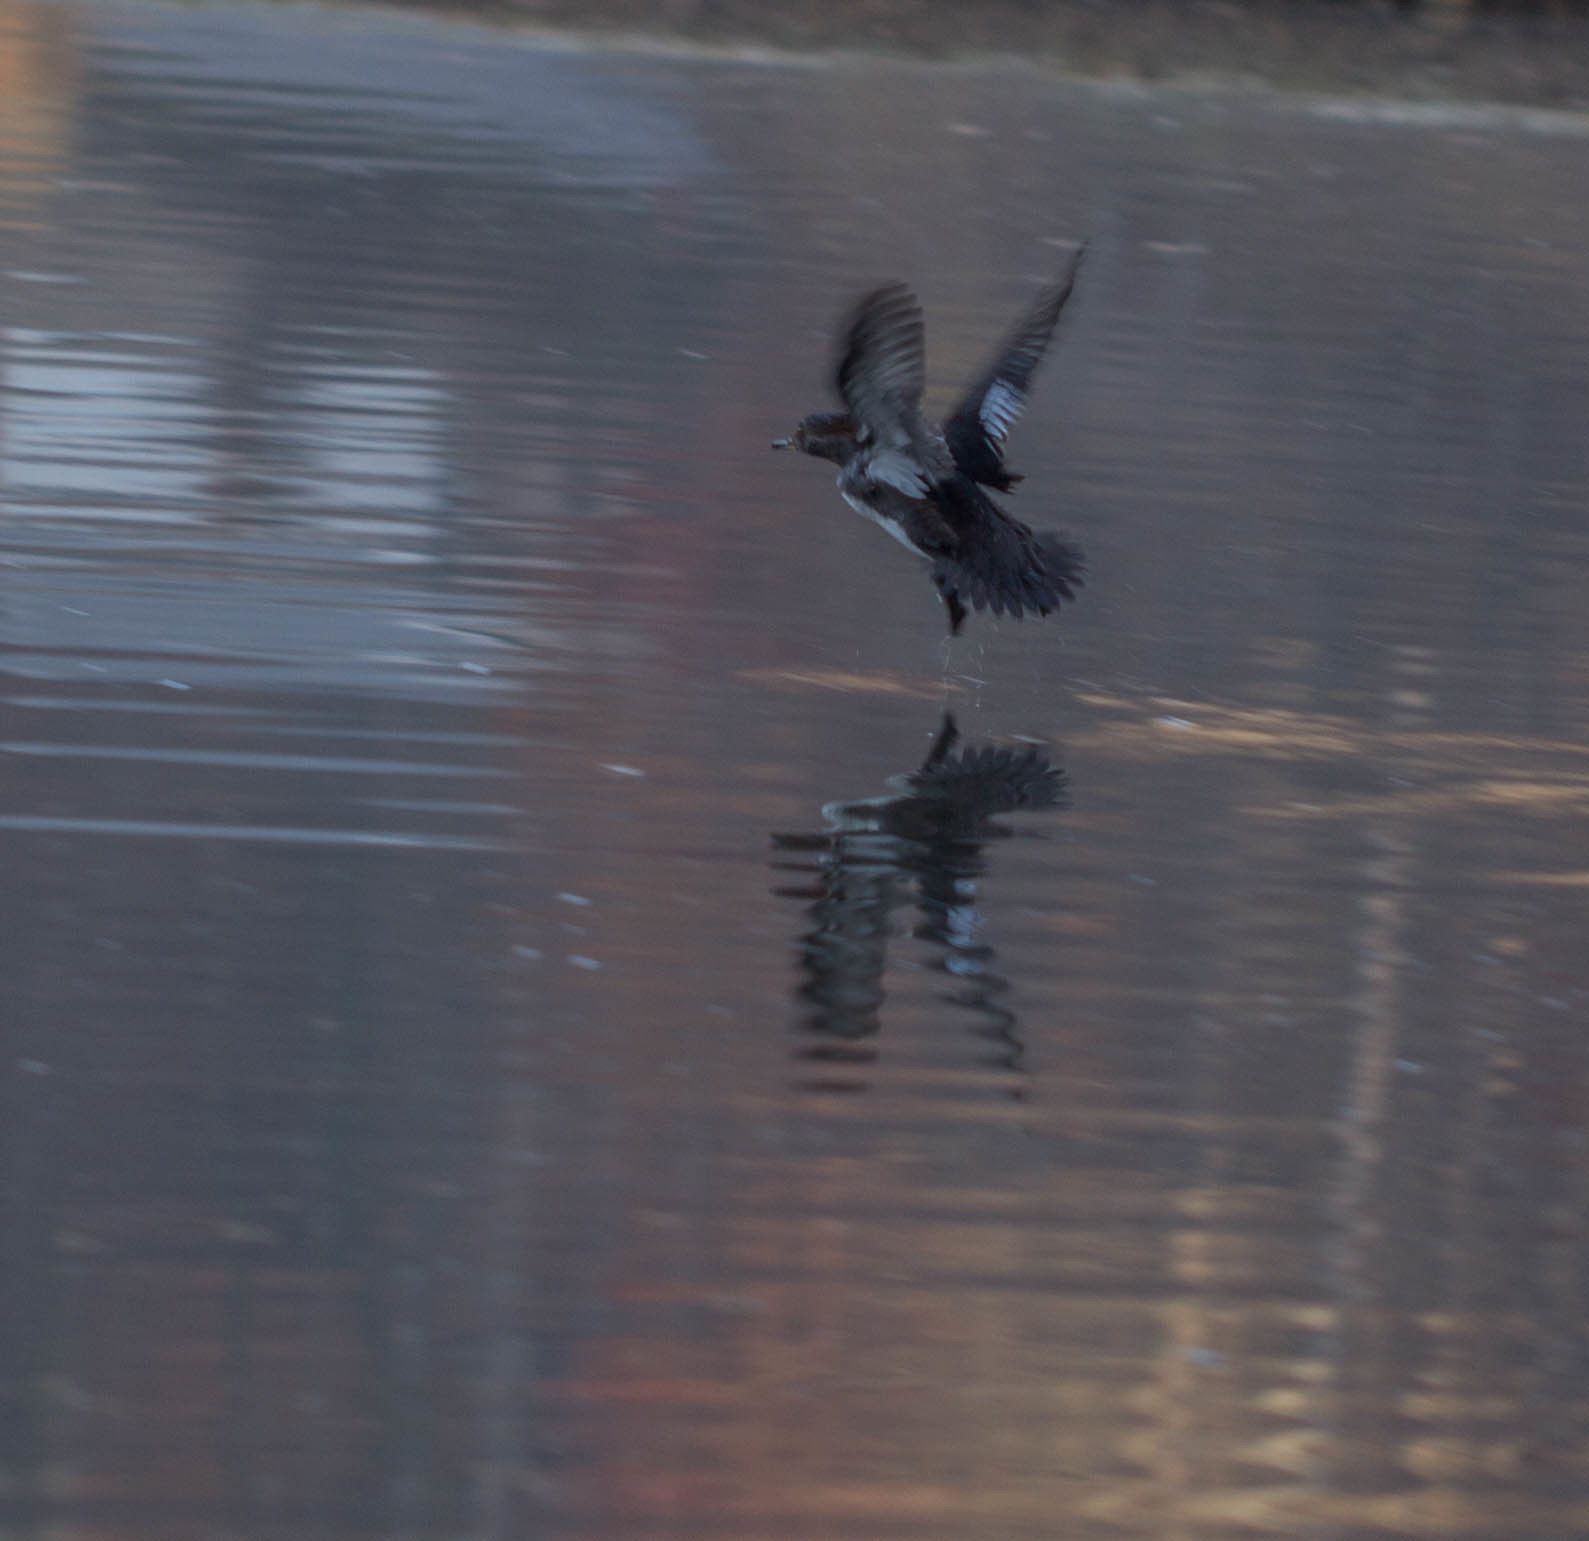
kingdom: Animalia
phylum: Chordata
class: Aves
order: Anseriformes
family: Anatidae
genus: Lophodytes
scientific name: Lophodytes cucullatus
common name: Hooded merganser
